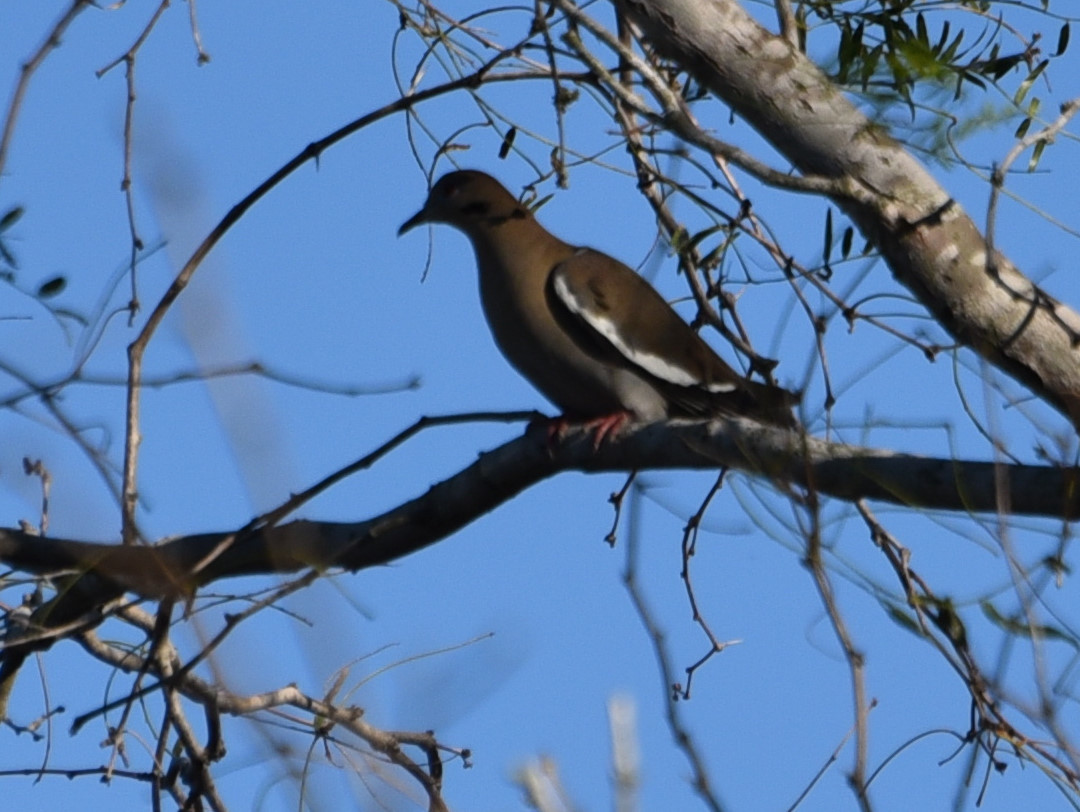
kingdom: Animalia
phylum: Chordata
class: Aves
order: Columbiformes
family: Columbidae
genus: Zenaida
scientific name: Zenaida asiatica
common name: White-winged dove
